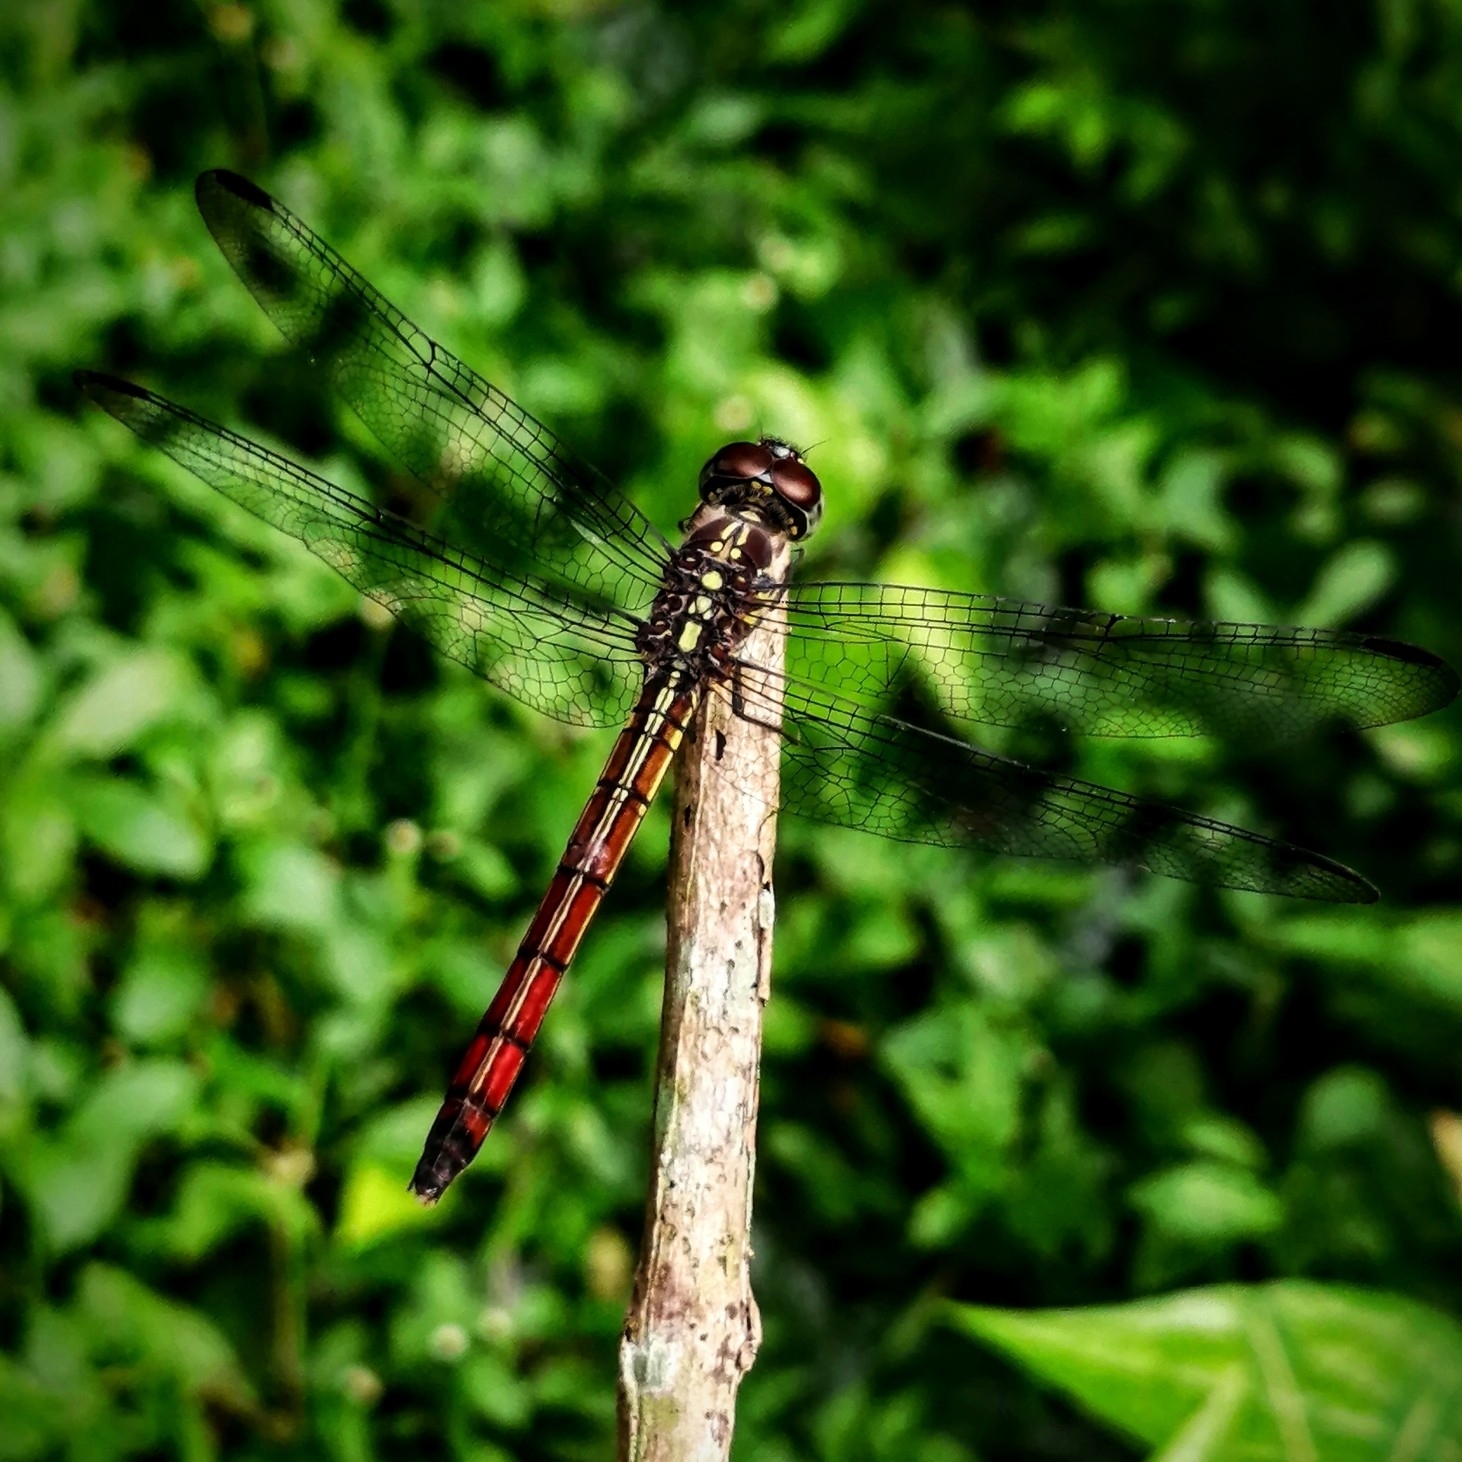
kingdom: Animalia
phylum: Arthropoda
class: Insecta
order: Odonata
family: Libellulidae
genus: Lathrecista
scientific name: Lathrecista asiatica
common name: Scarlet grenadier
